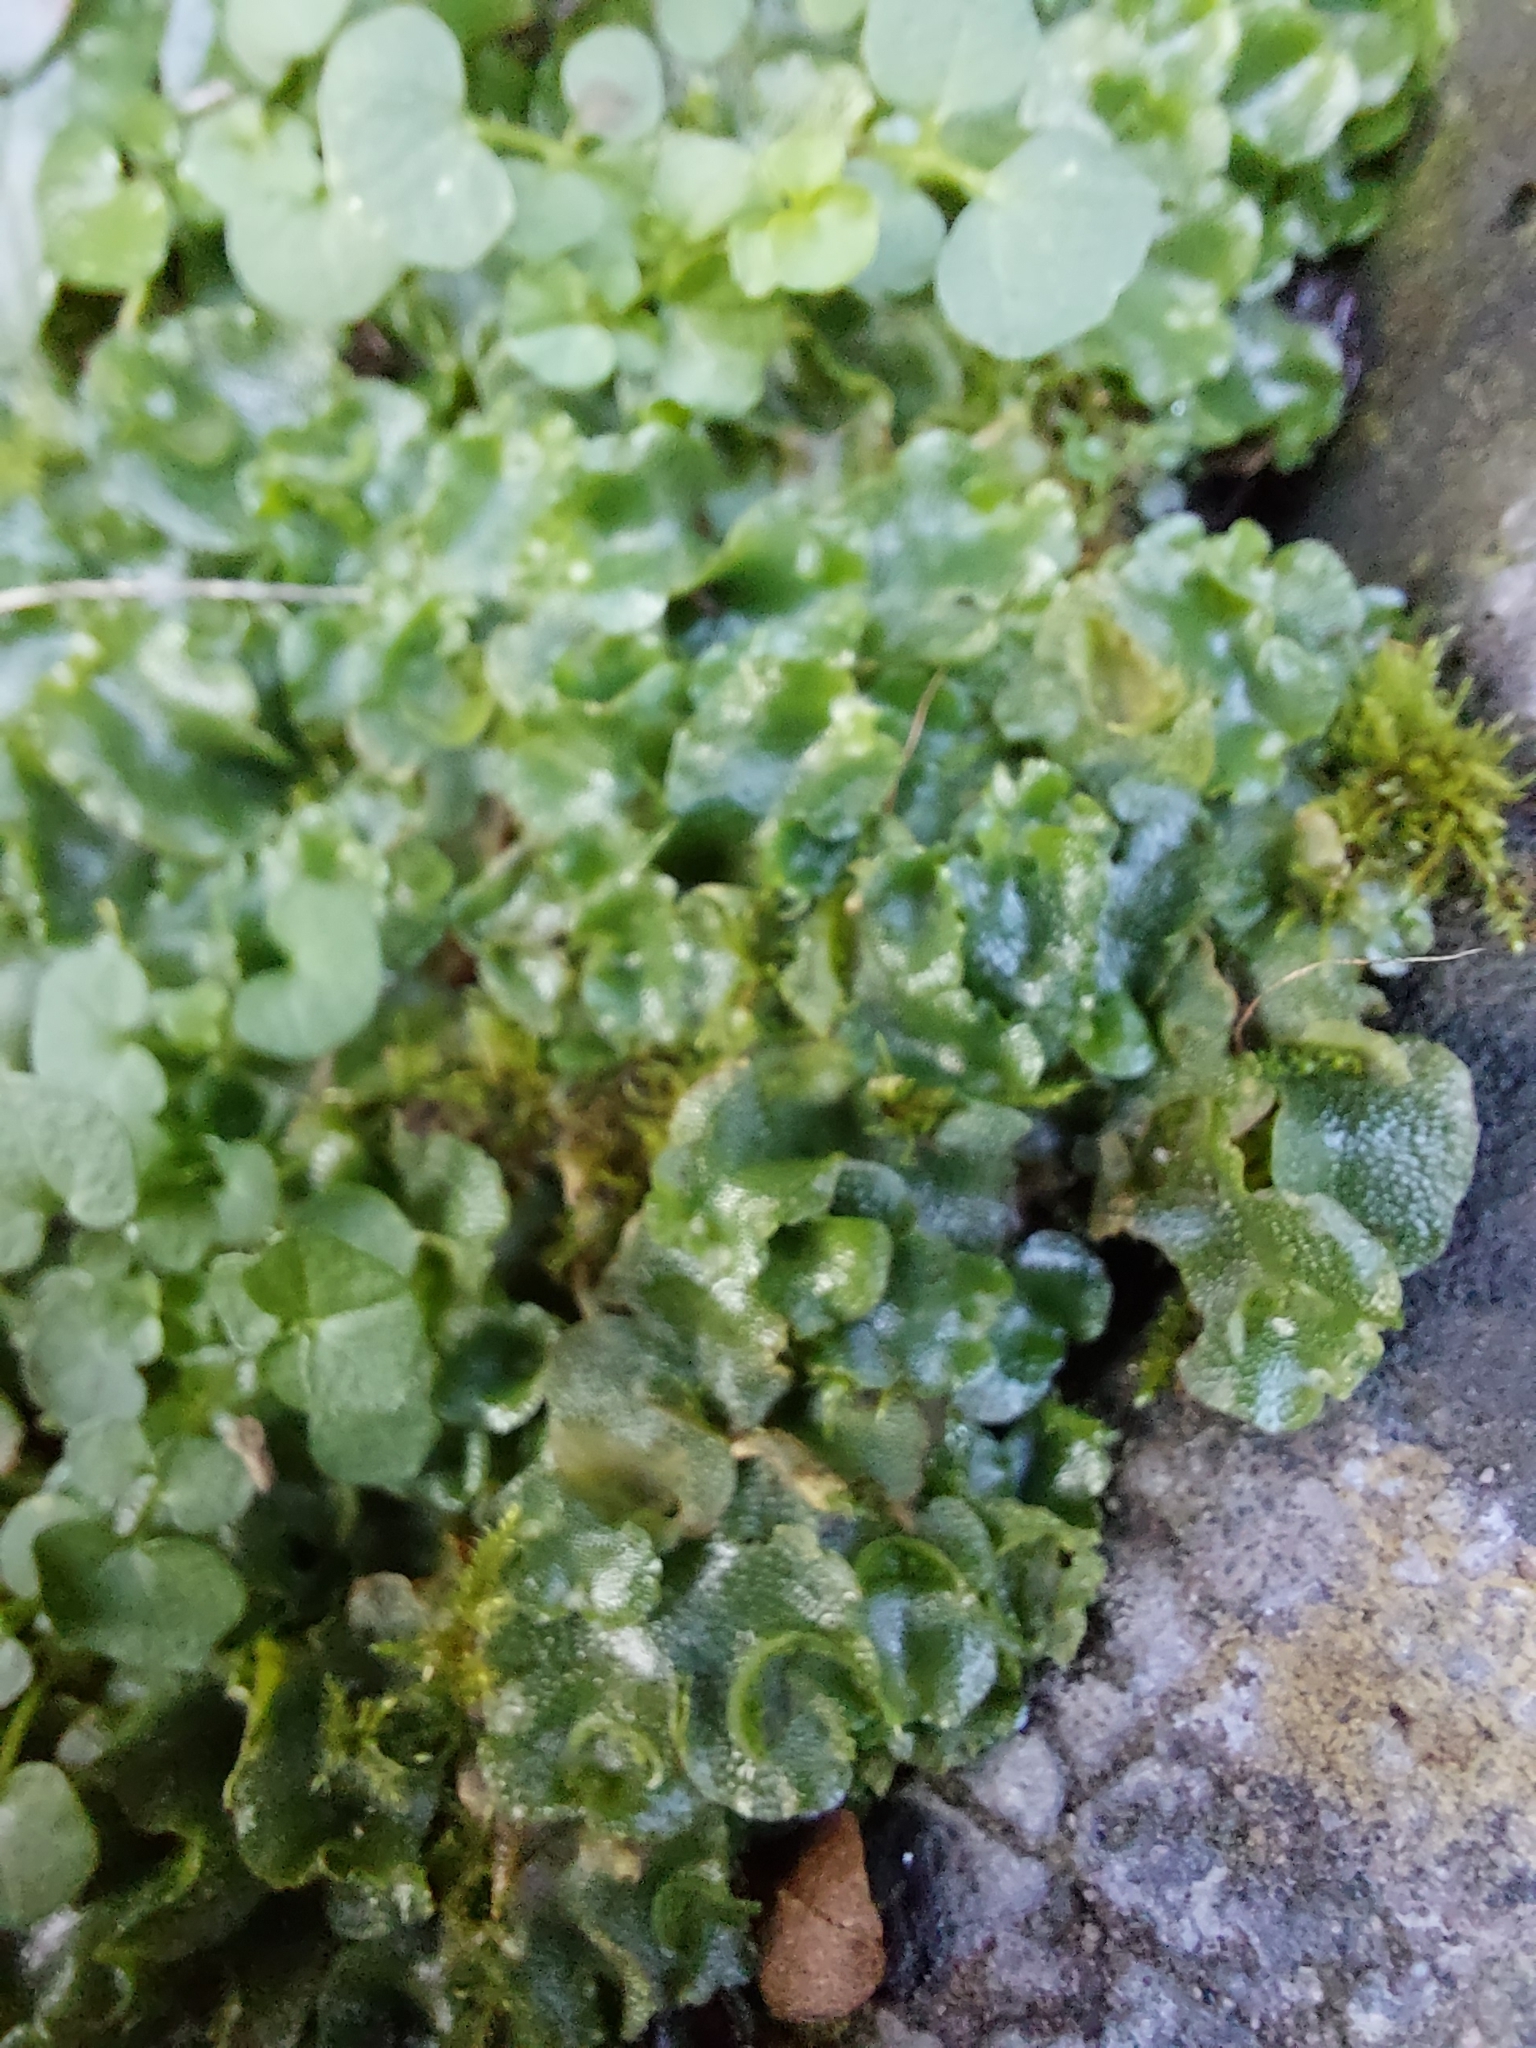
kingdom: Plantae
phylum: Marchantiophyta
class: Marchantiopsida
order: Lunulariales
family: Lunulariaceae
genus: Lunularia
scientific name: Lunularia cruciata
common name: Crescent-cup liverwort
